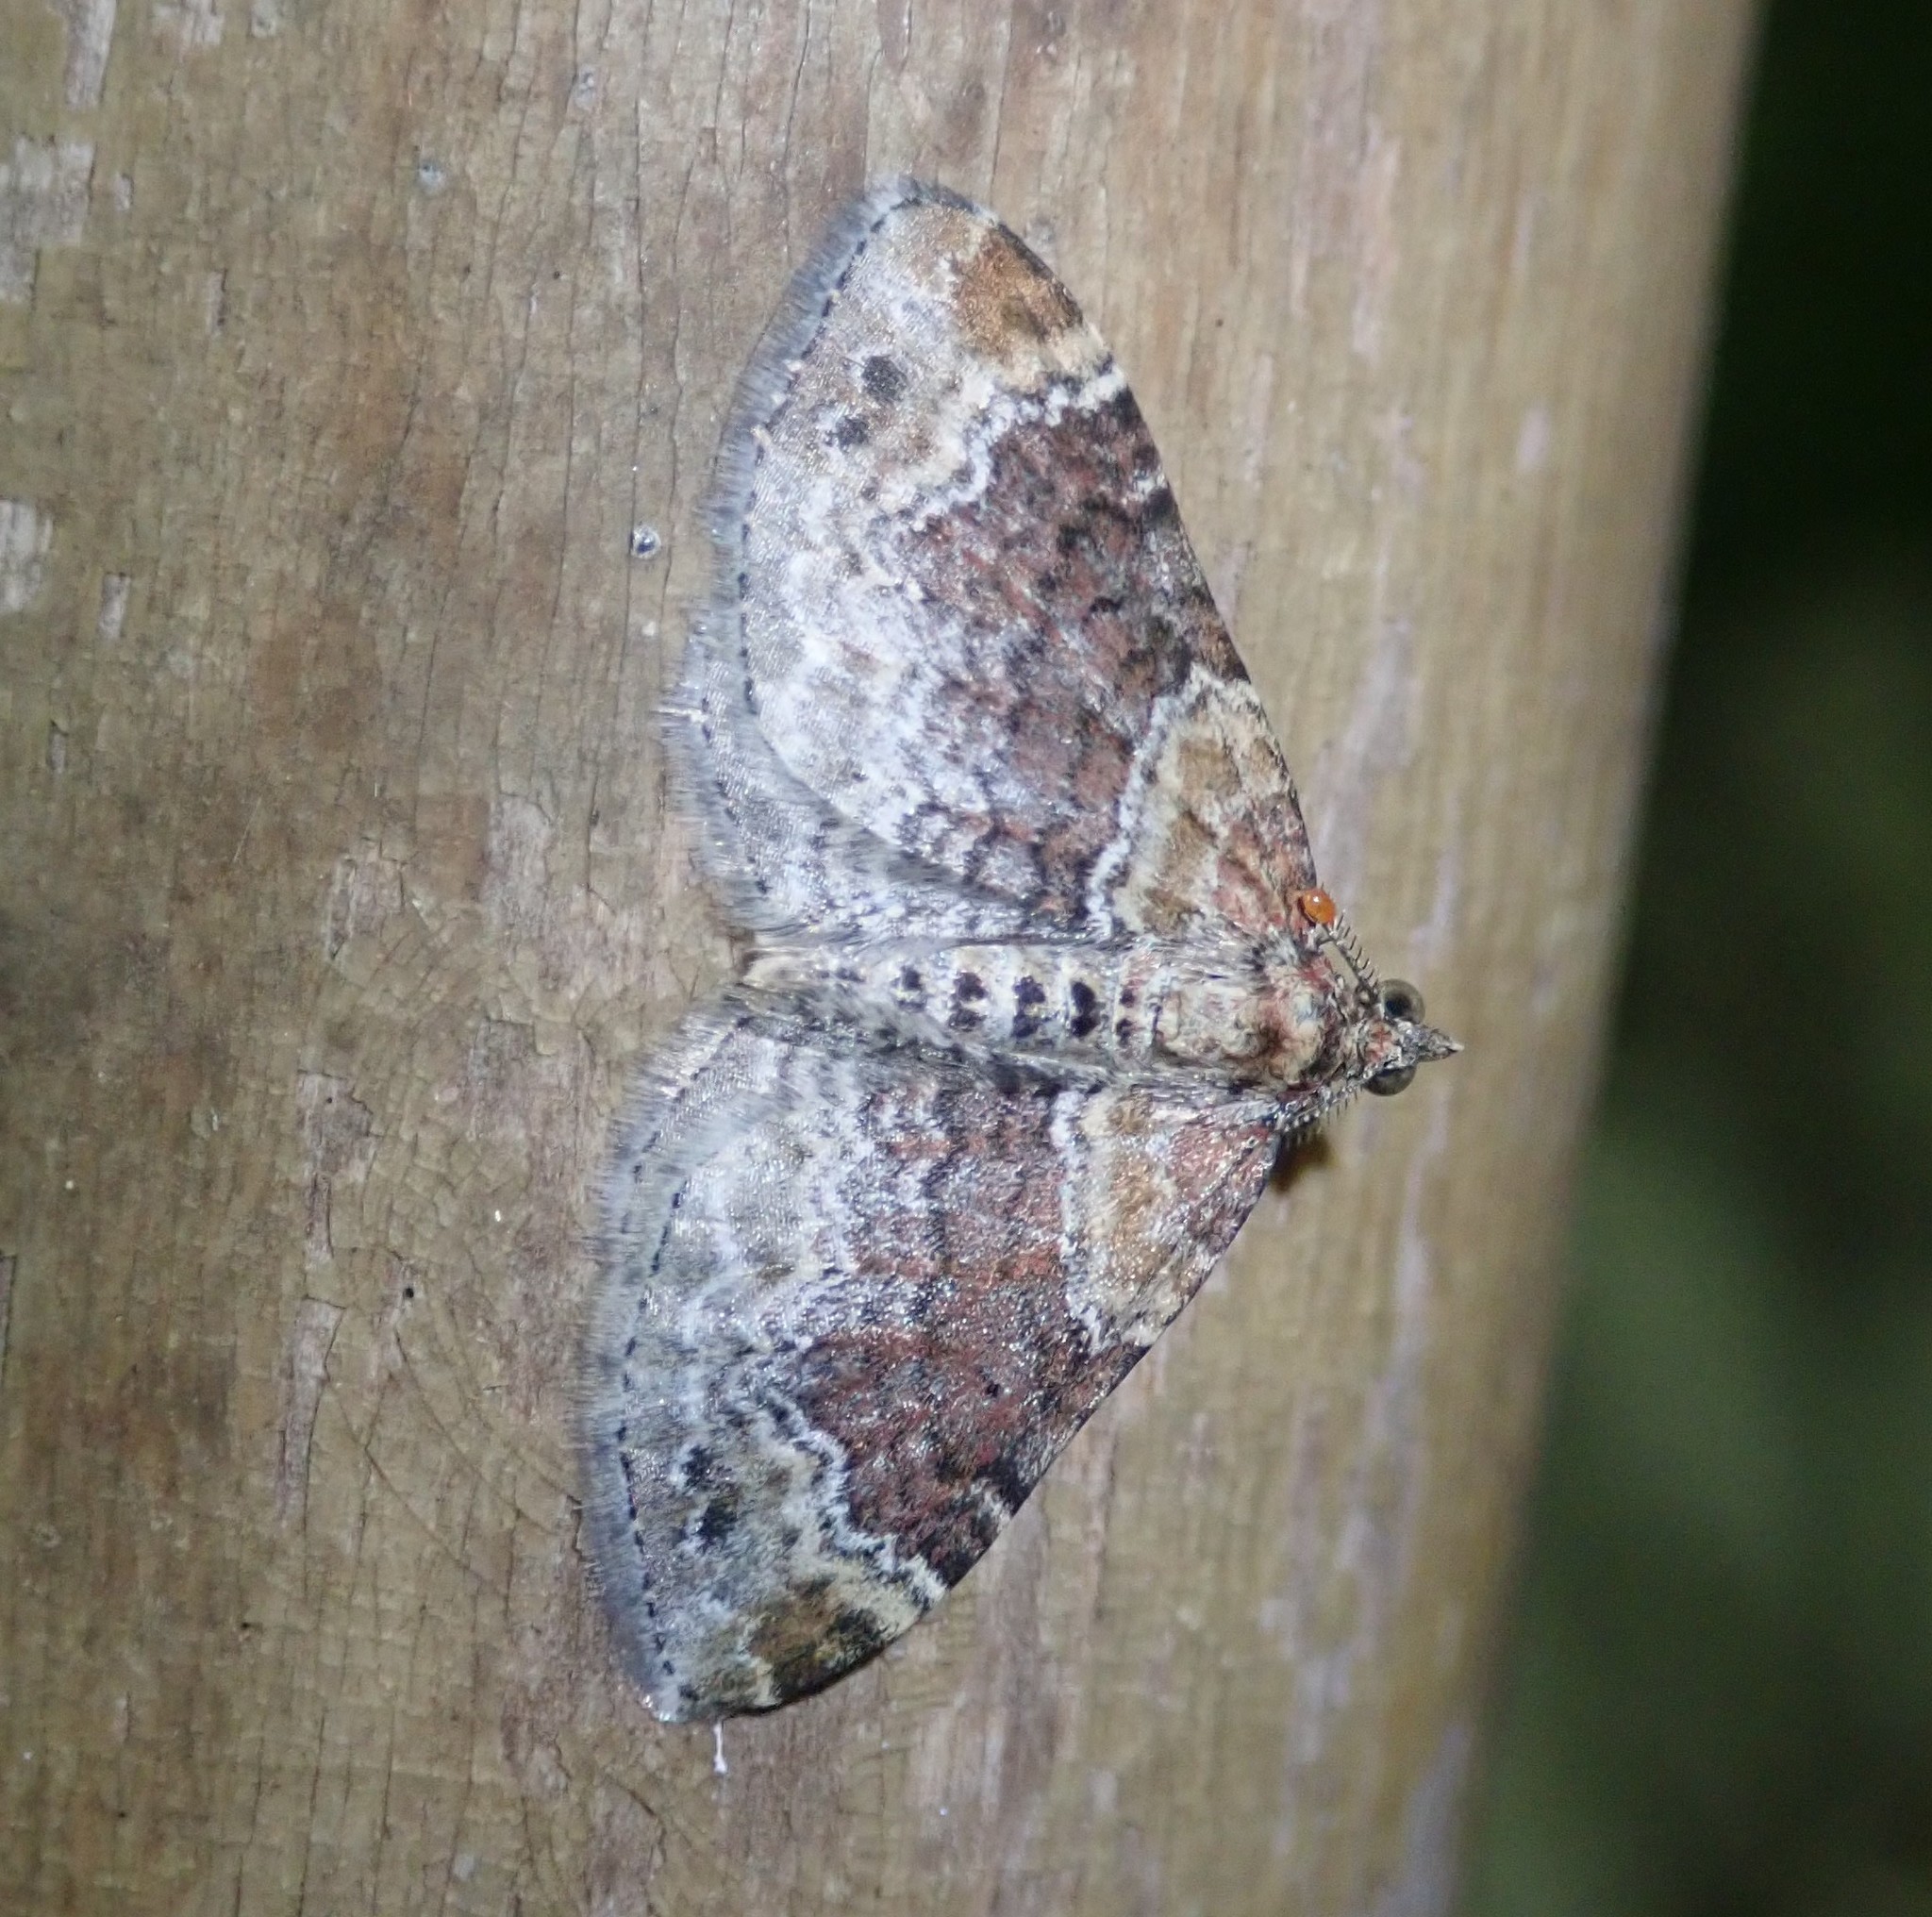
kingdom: Animalia
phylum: Arthropoda
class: Insecta
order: Lepidoptera
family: Geometridae
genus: Xanthorhoe
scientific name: Xanthorhoe spadicearia
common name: Red twin-spot carpet
